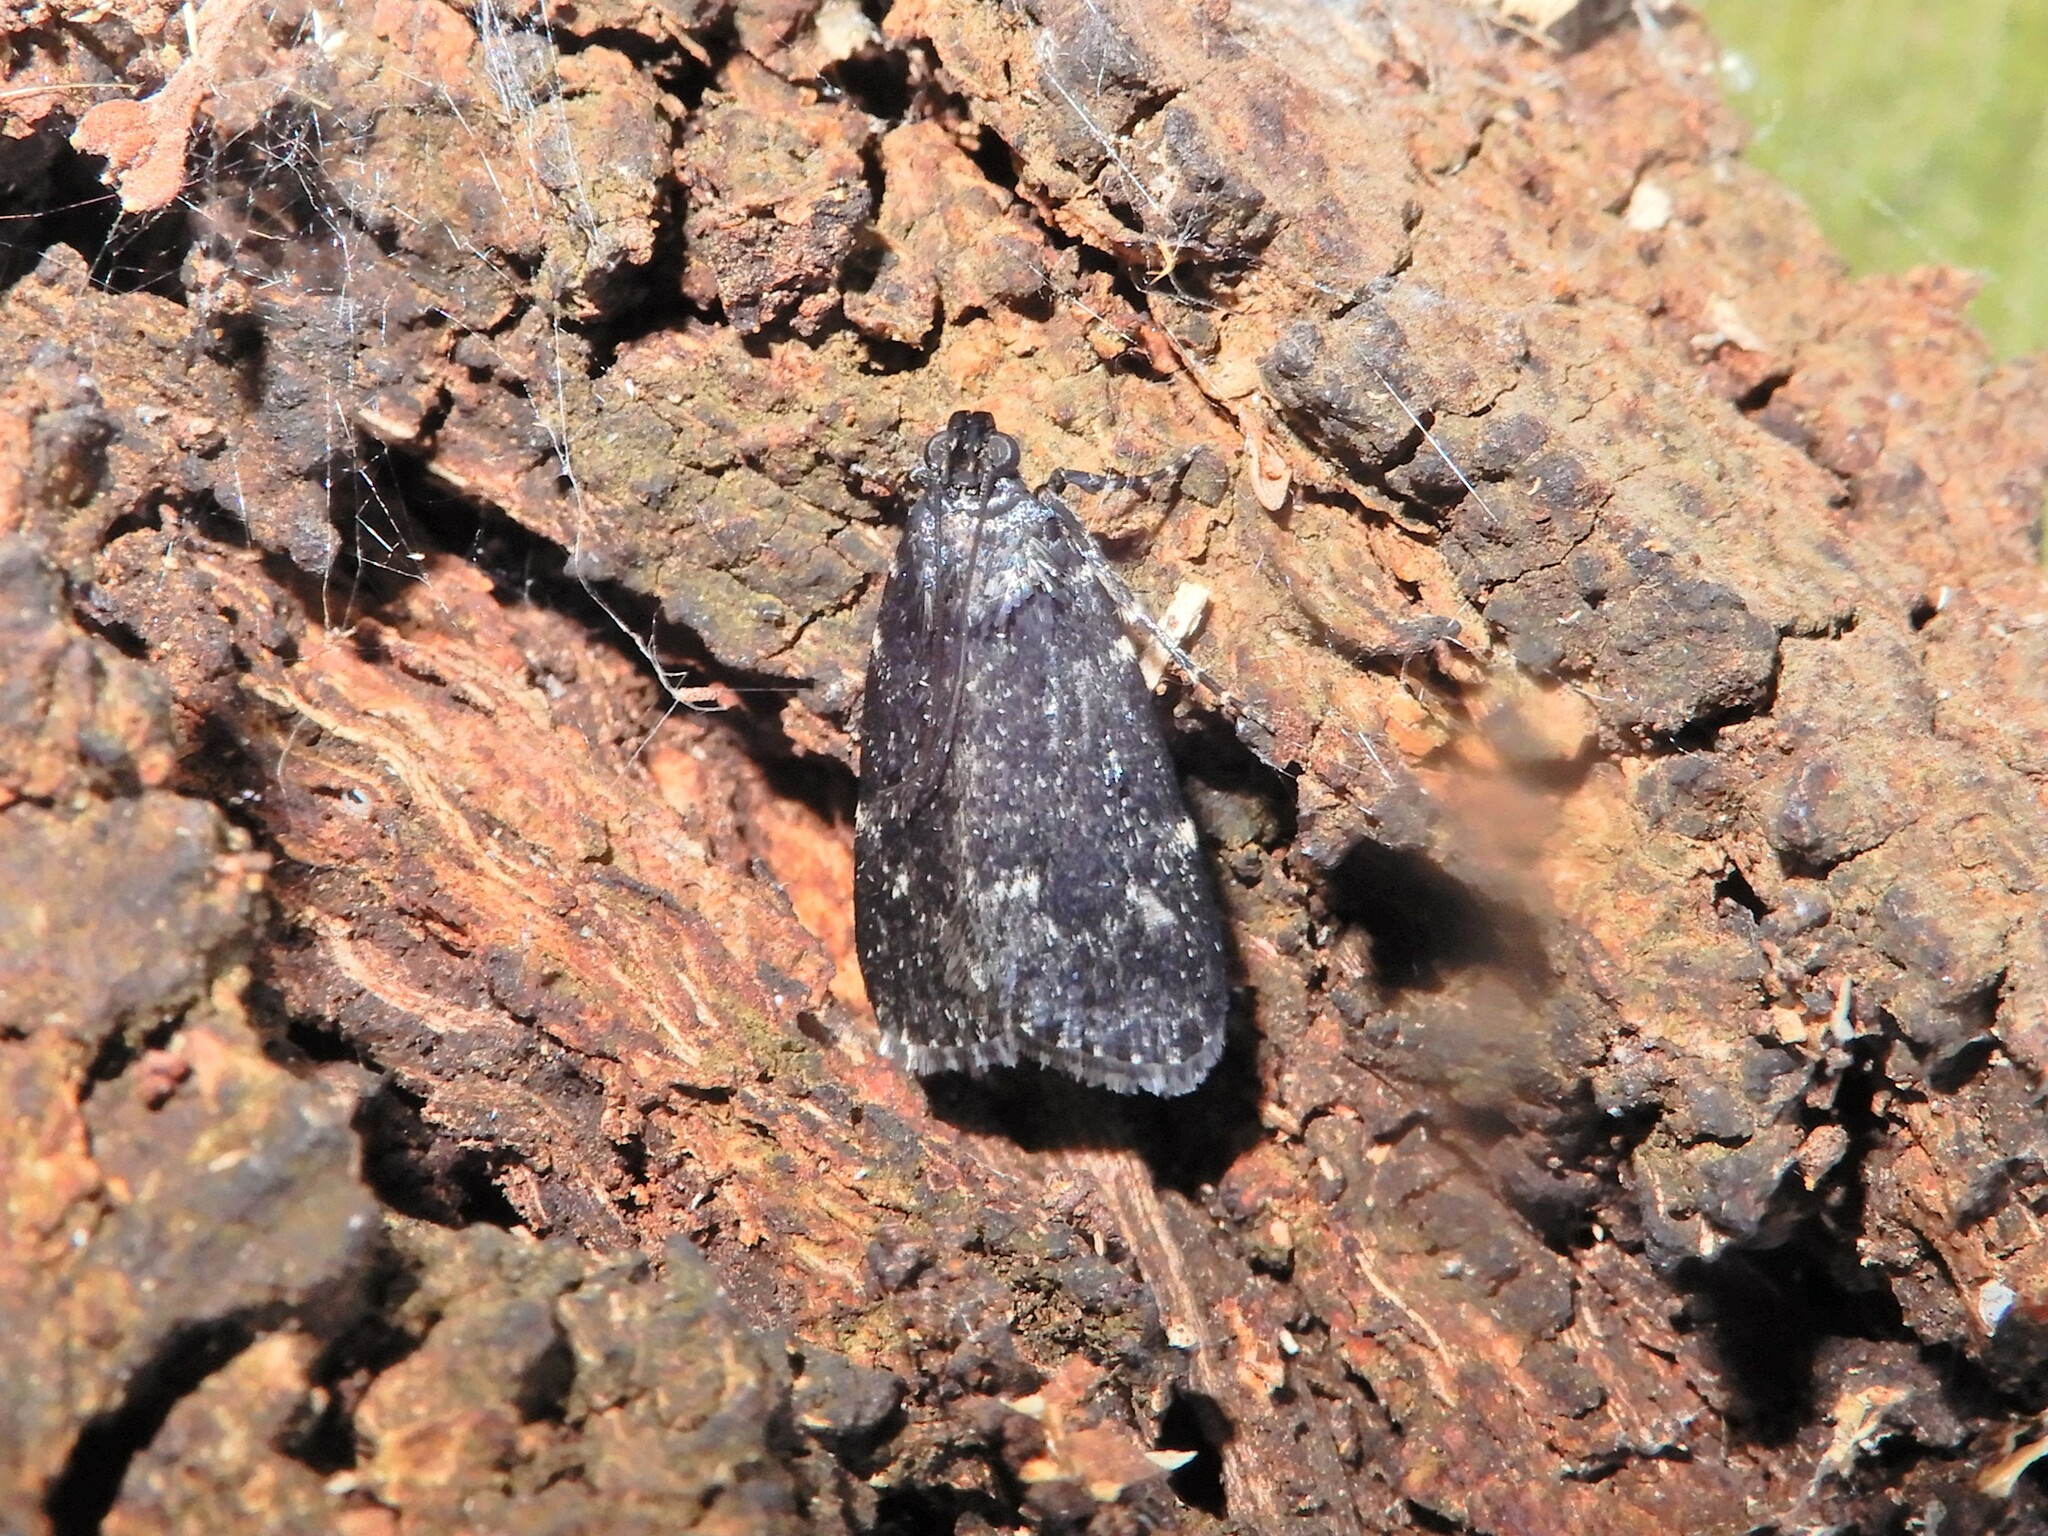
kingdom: Animalia
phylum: Arthropoda
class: Insecta
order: Lepidoptera
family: Pyralidae
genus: Stericta
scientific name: Stericta carbonalis
